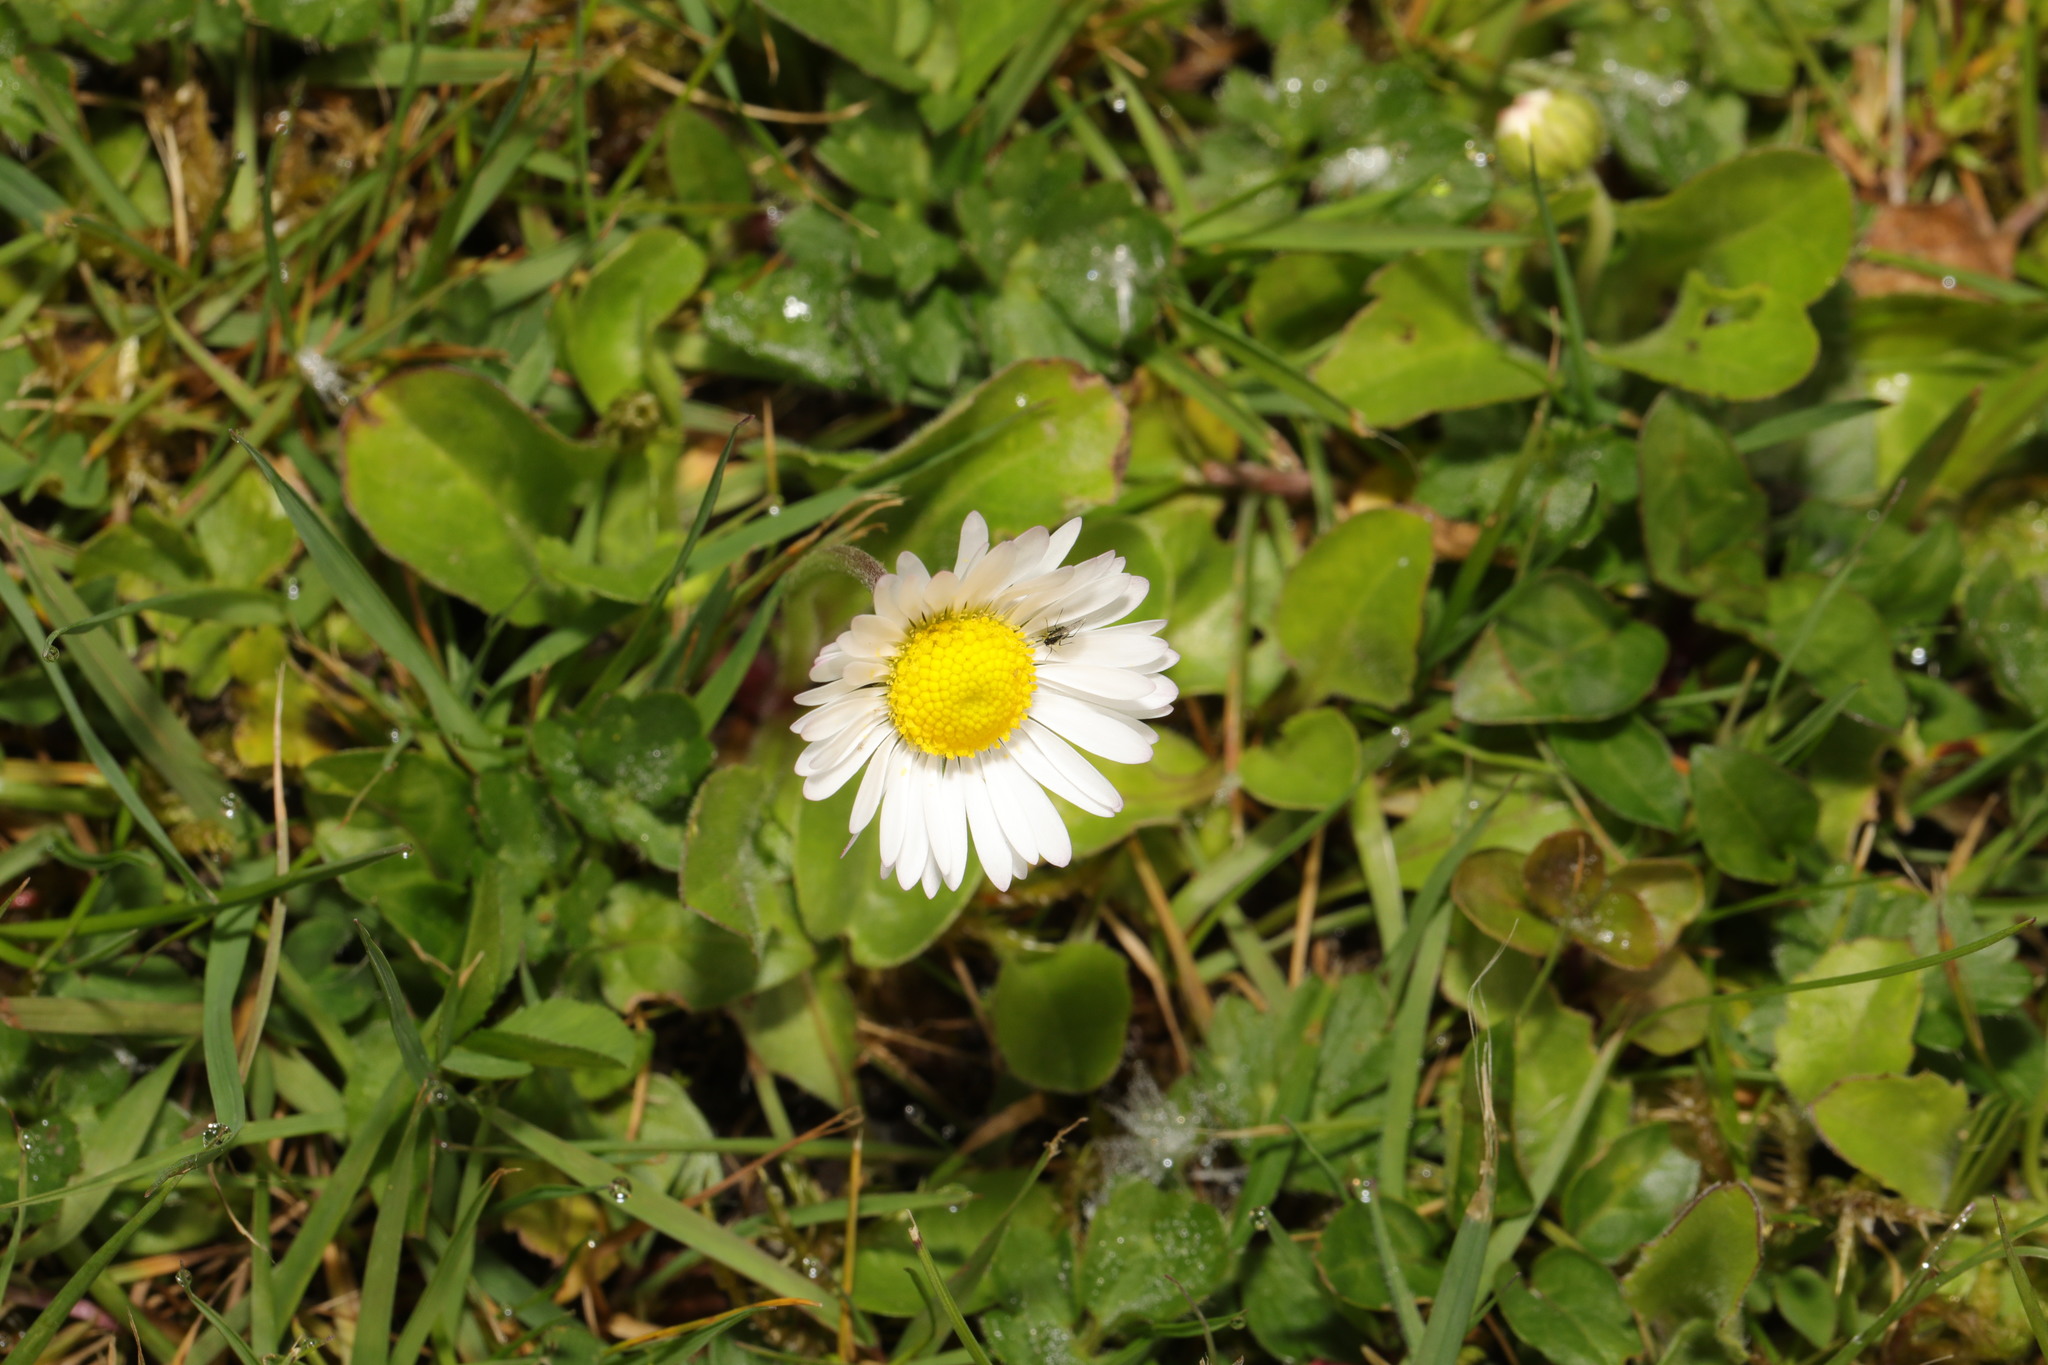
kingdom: Plantae
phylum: Tracheophyta
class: Magnoliopsida
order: Asterales
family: Asteraceae
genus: Bellis
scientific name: Bellis perennis
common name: Lawndaisy
